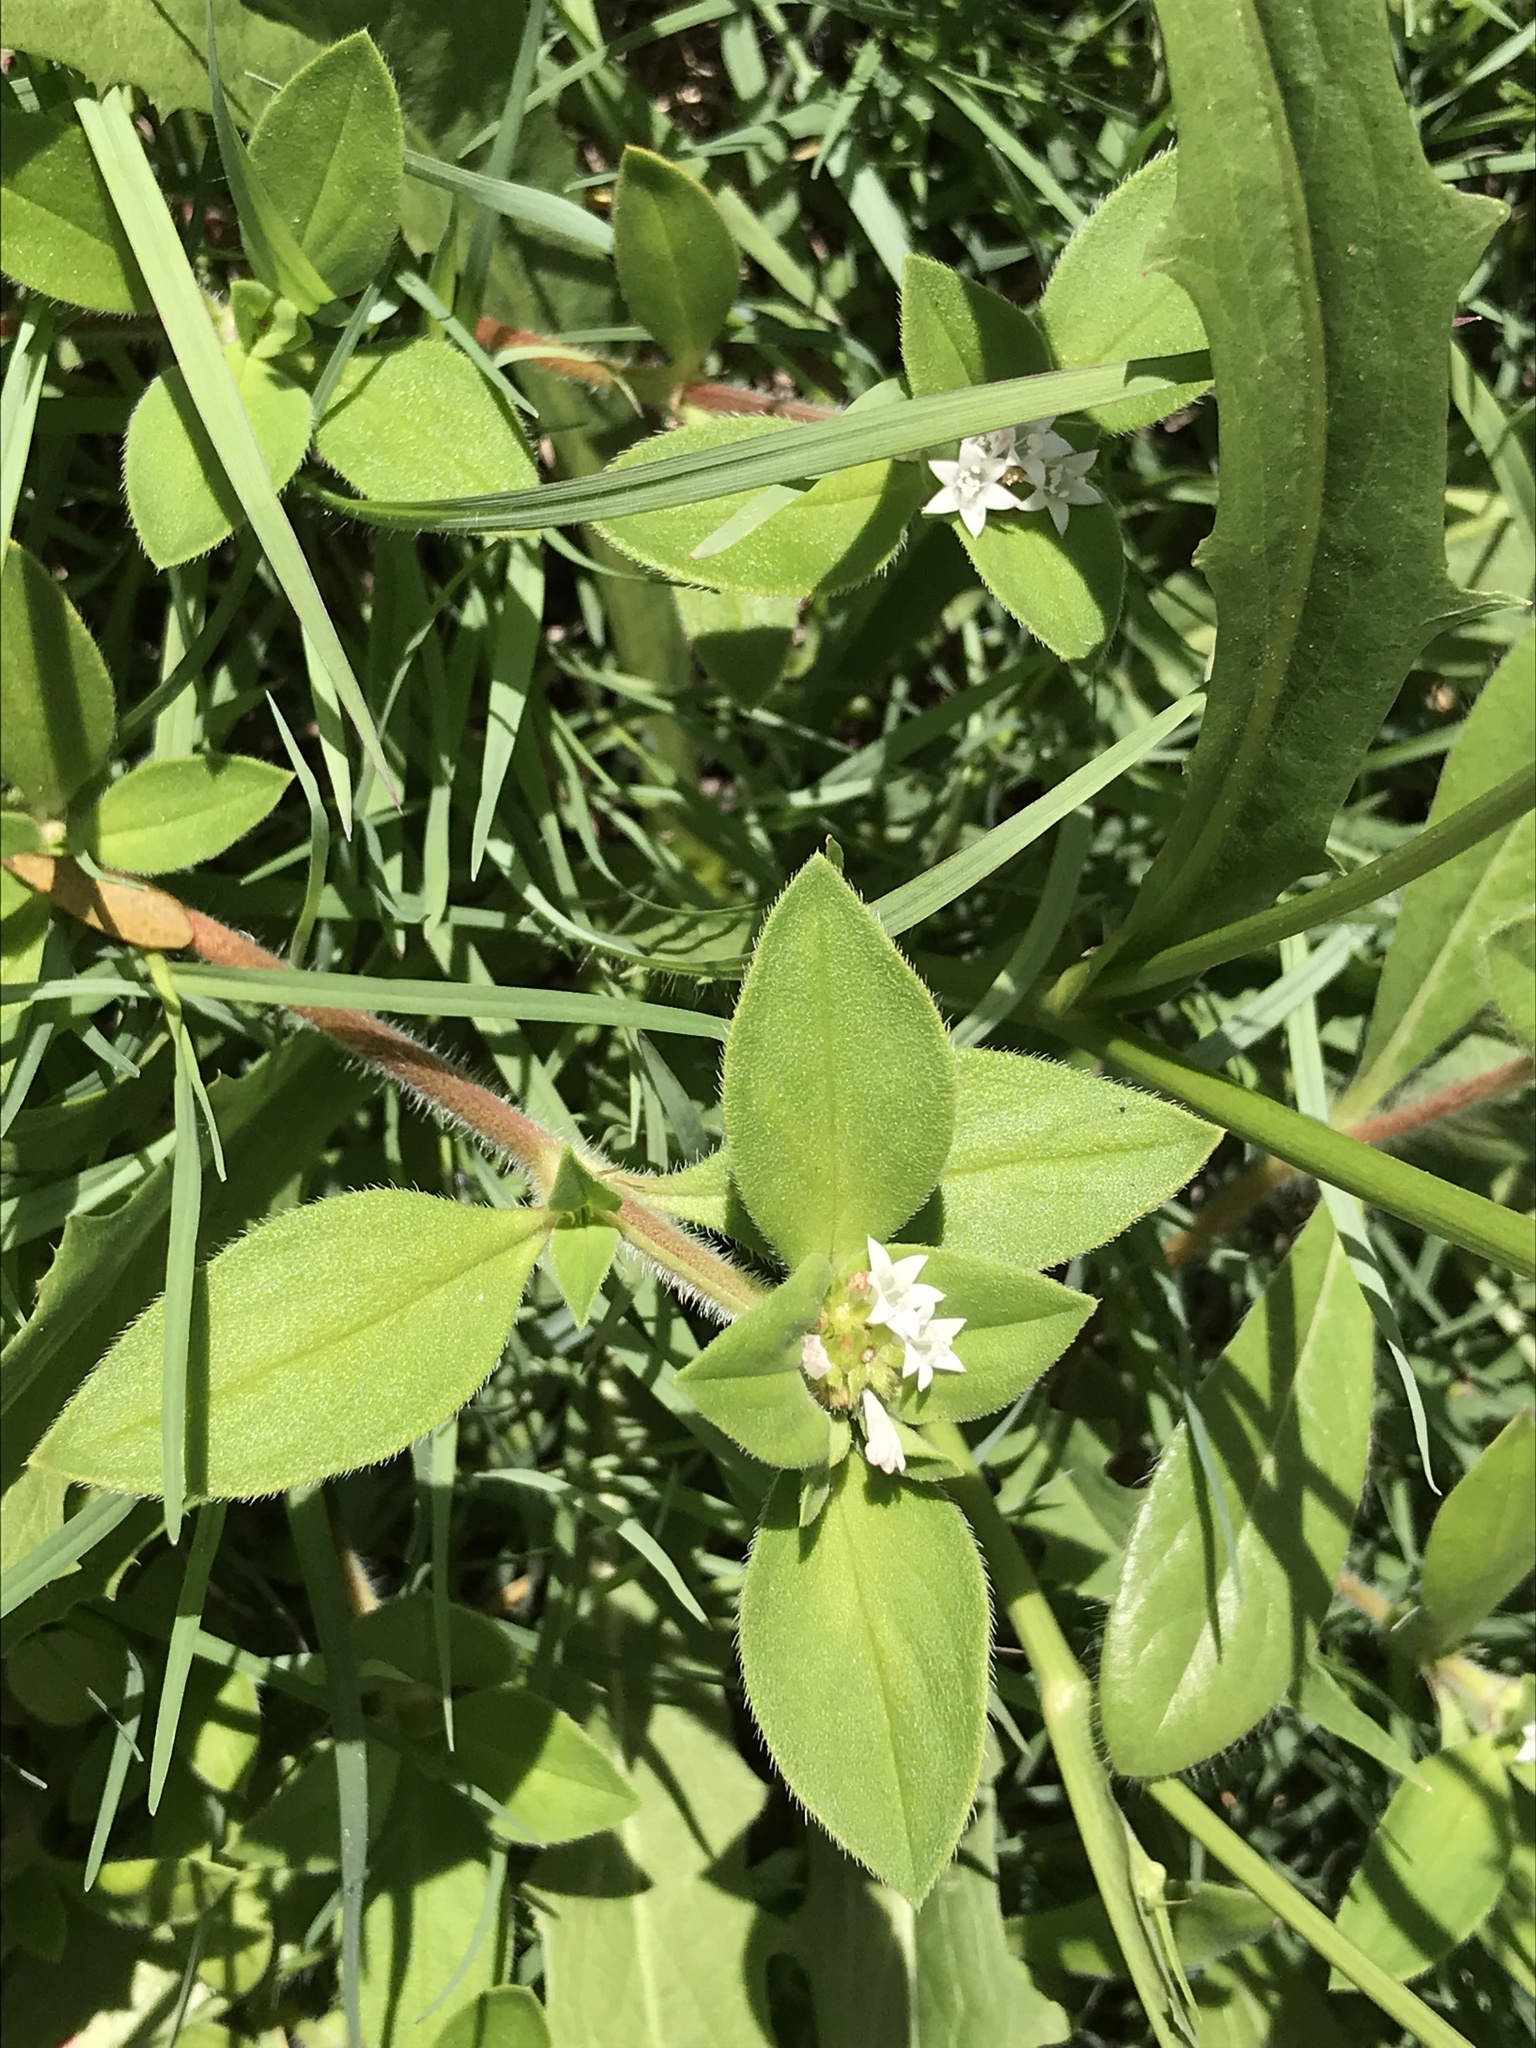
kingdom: Plantae
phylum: Tracheophyta
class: Magnoliopsida
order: Gentianales
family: Rubiaceae
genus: Richardia
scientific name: Richardia brasiliensis
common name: Tropical mexican clover
